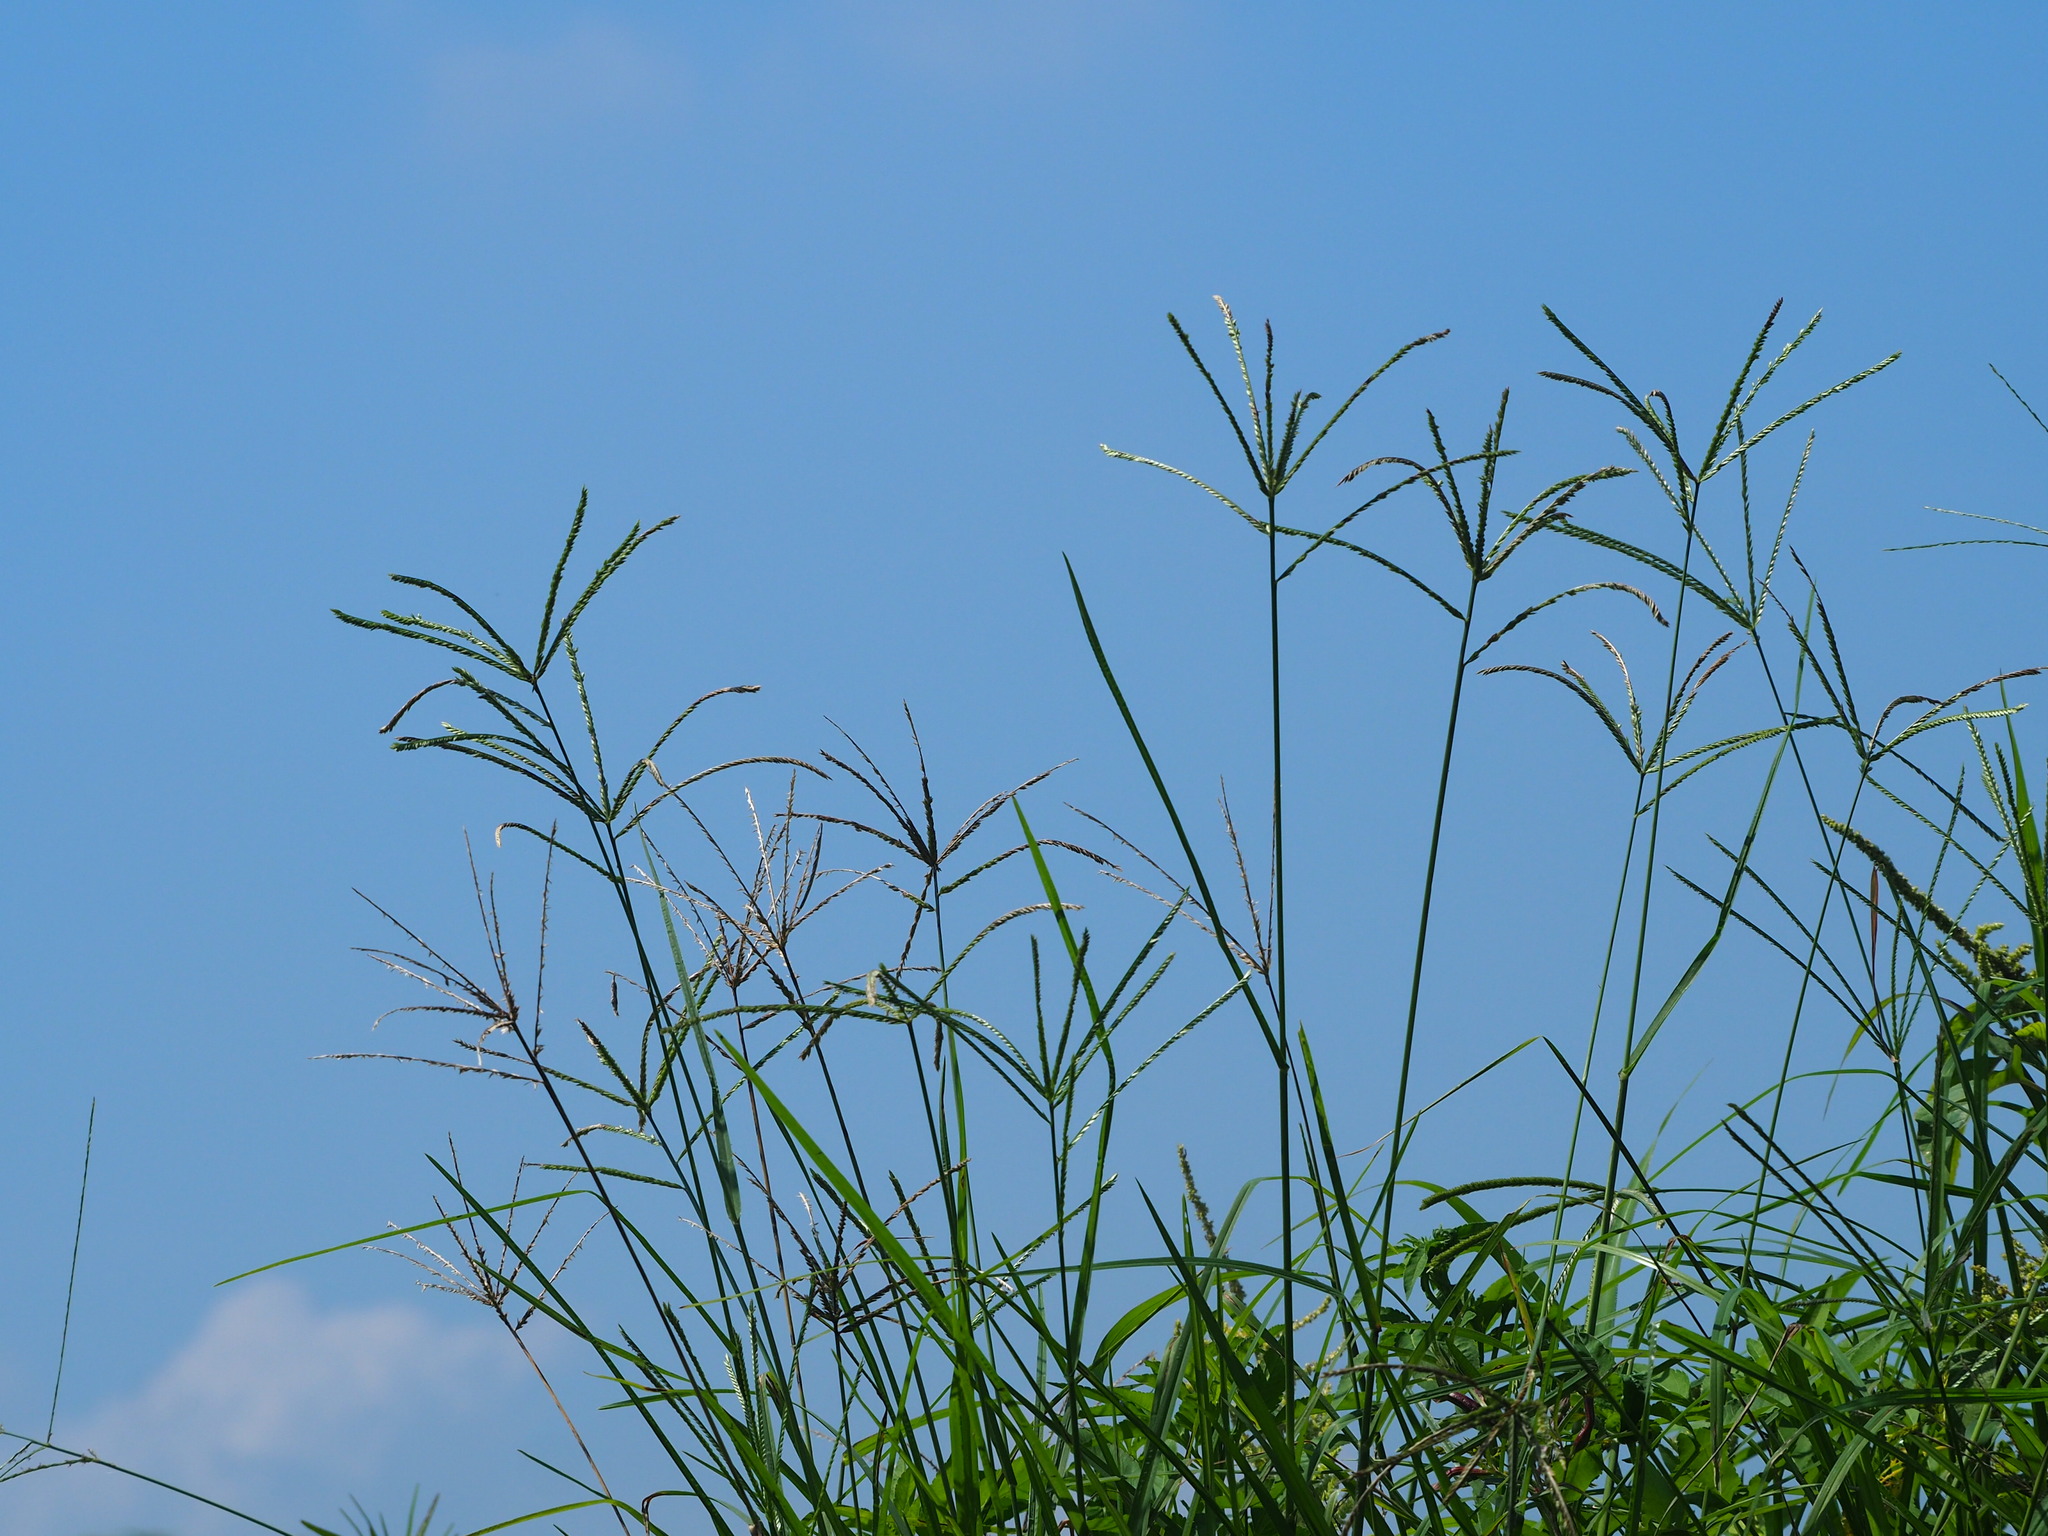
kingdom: Plantae
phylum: Tracheophyta
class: Liliopsida
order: Poales
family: Poaceae
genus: Eleusine
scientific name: Eleusine indica
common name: Yard-grass
